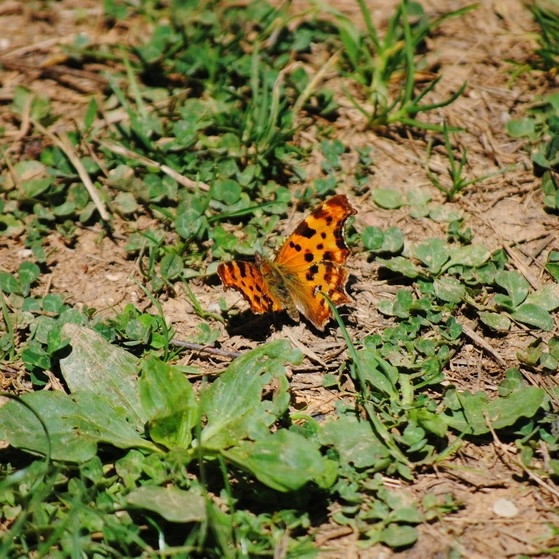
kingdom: Animalia
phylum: Arthropoda
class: Insecta
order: Lepidoptera
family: Nymphalidae
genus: Polygonia
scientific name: Polygonia c-album
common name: Comma
